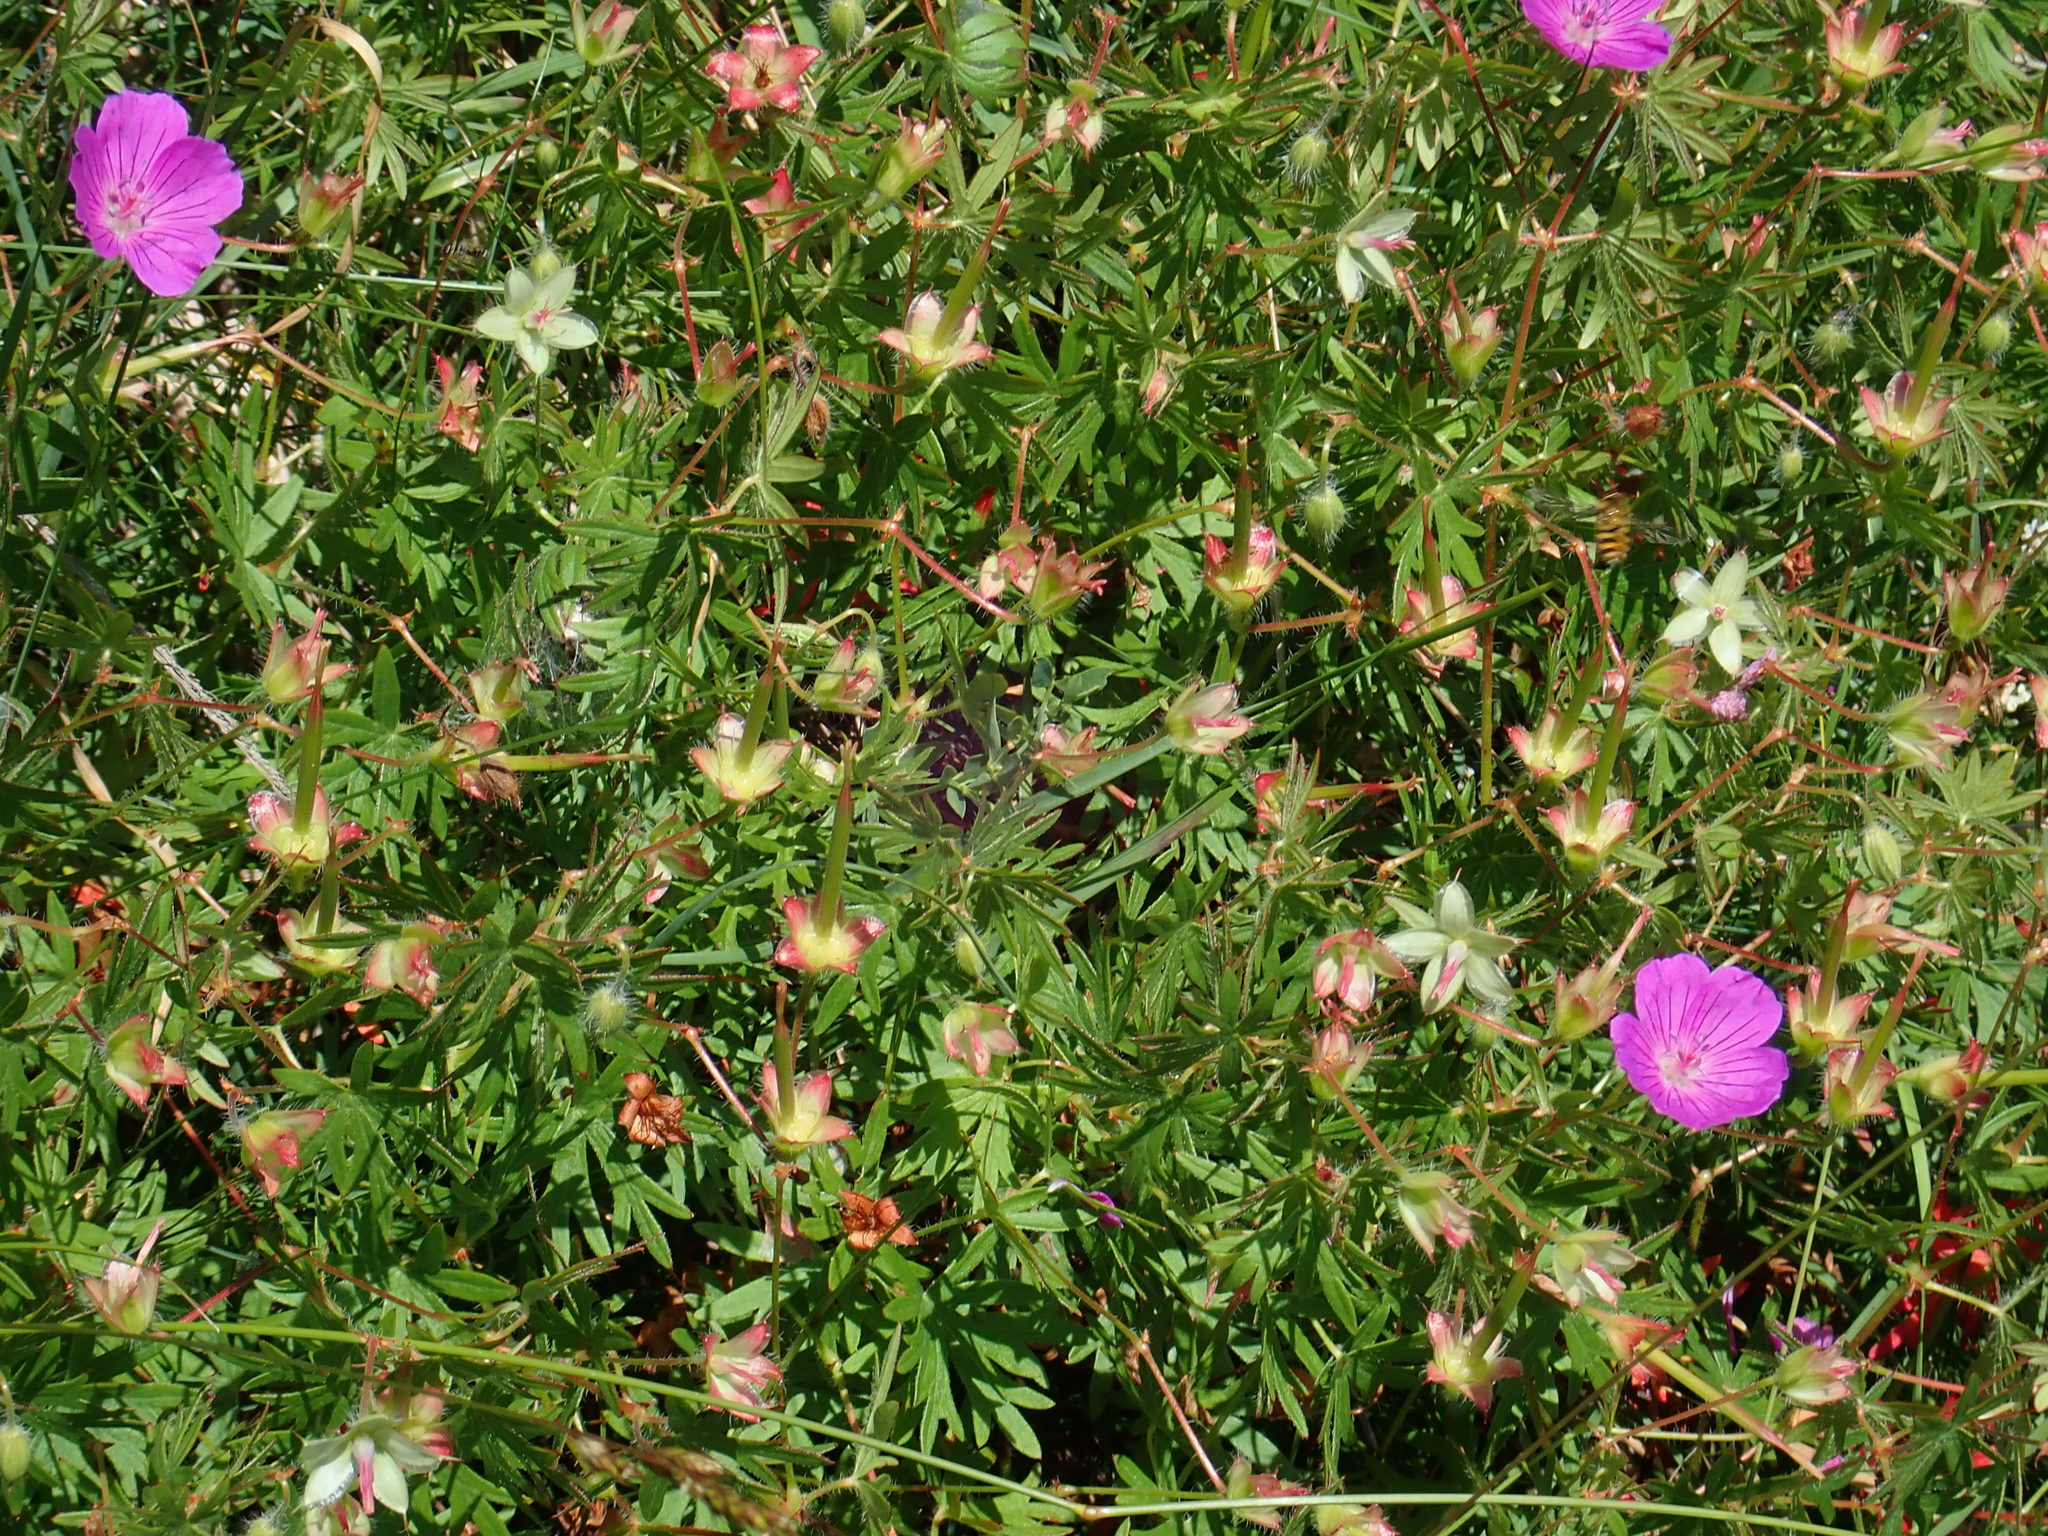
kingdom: Plantae
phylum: Tracheophyta
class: Magnoliopsida
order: Geraniales
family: Geraniaceae
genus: Geranium
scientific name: Geranium sanguineum
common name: Bloody crane's-bill
